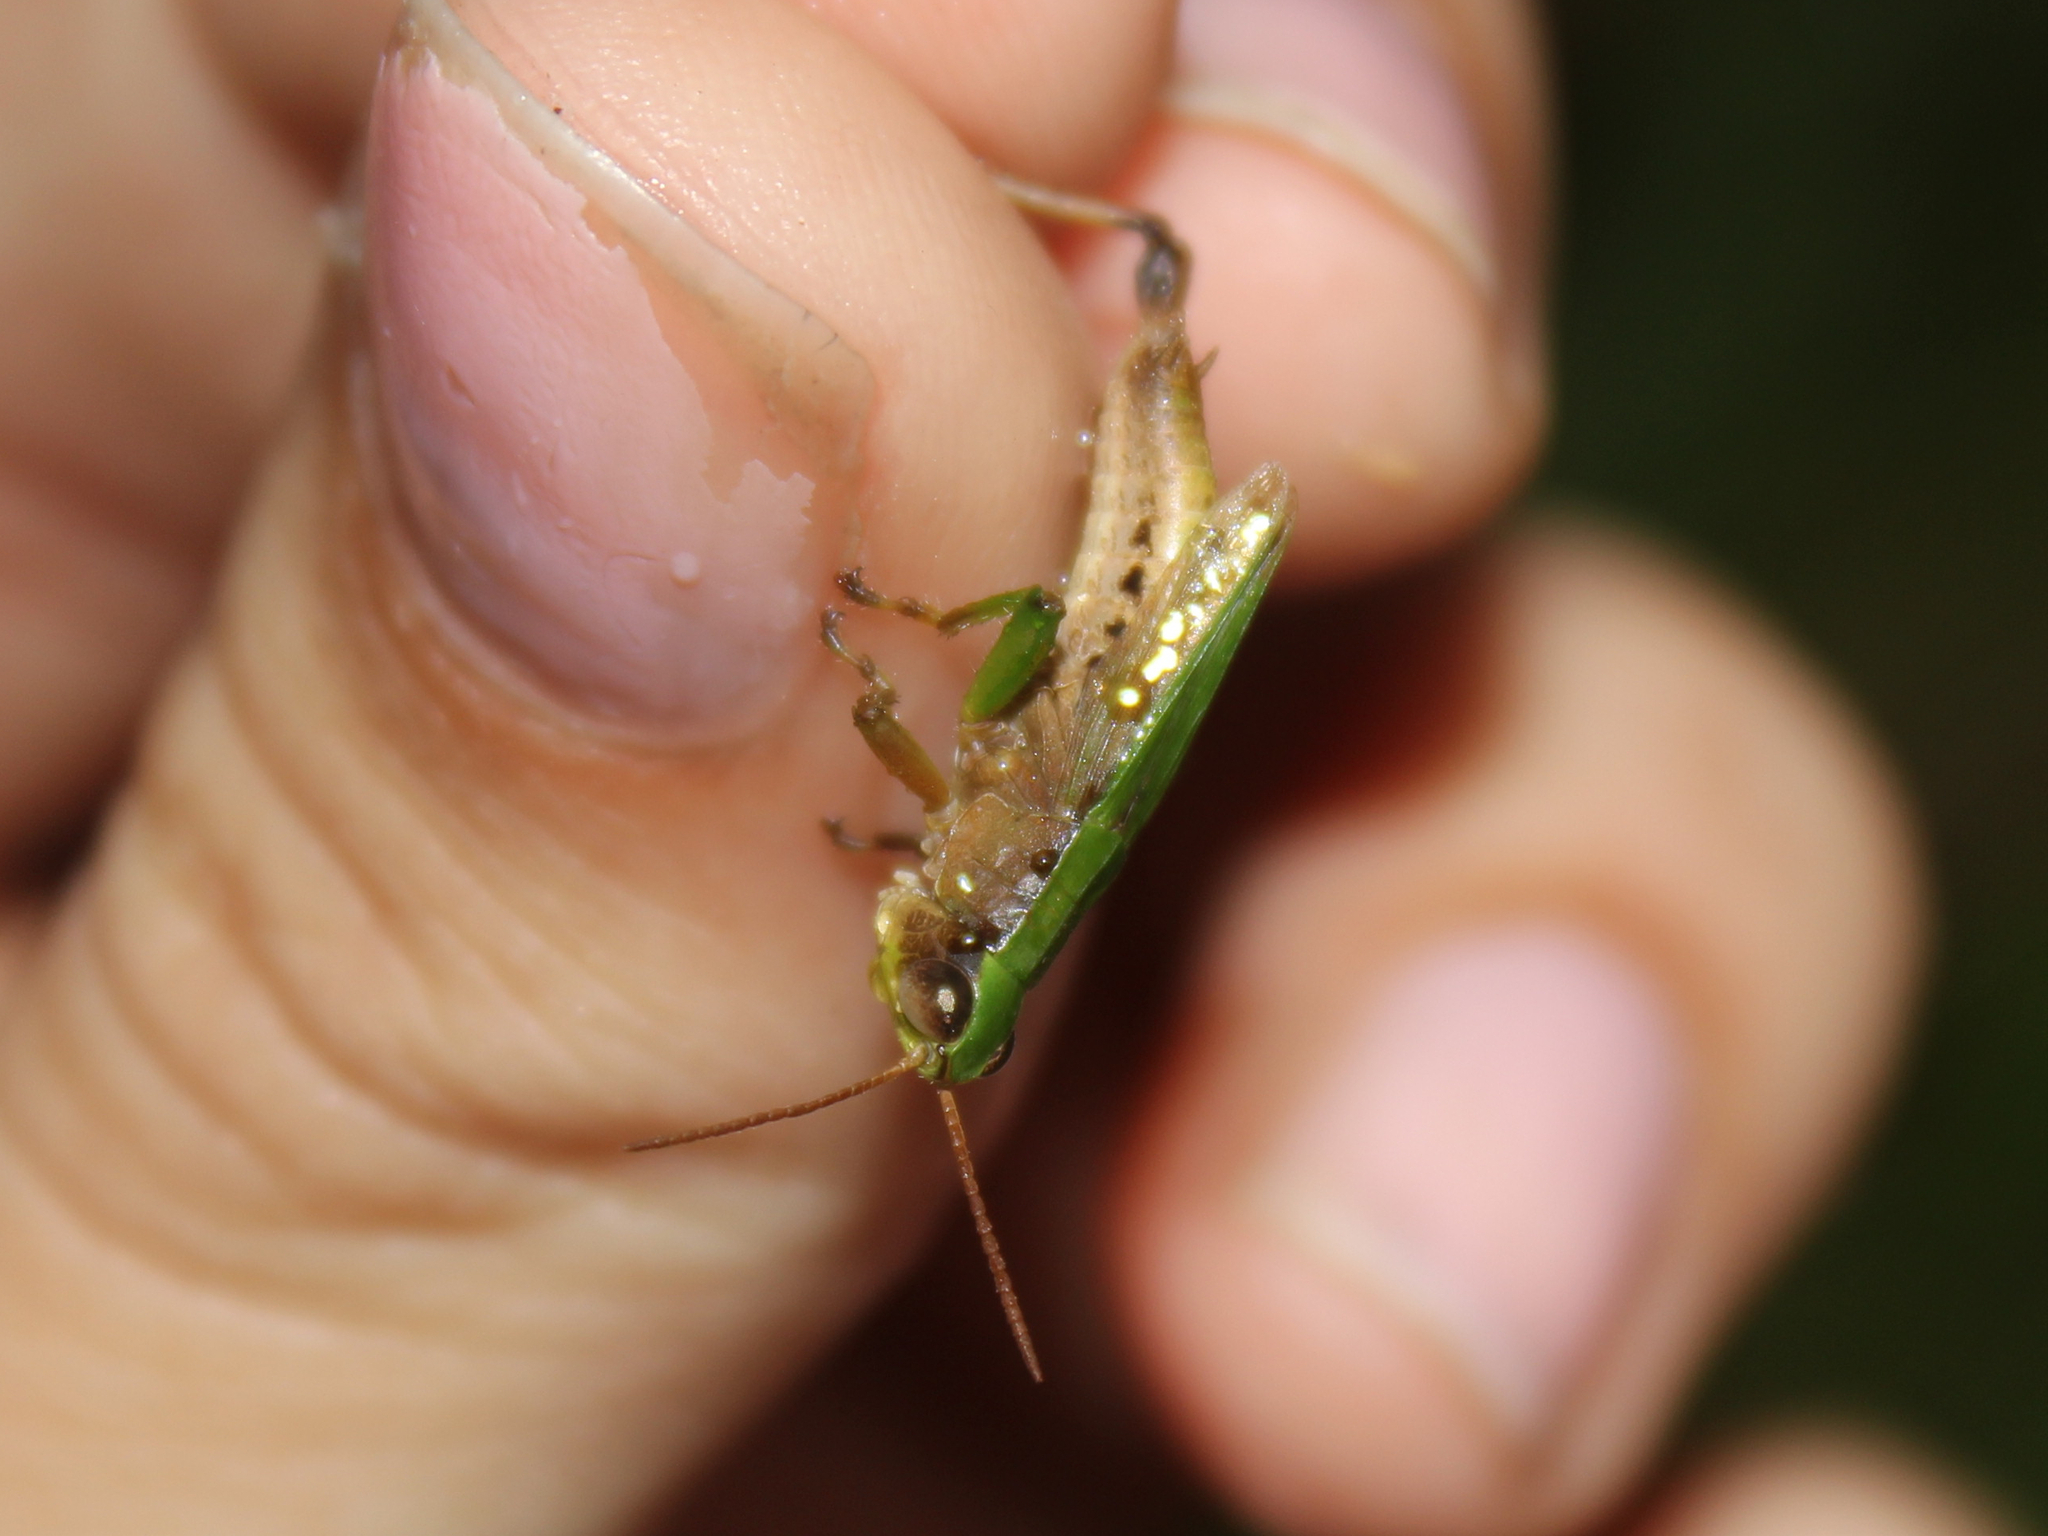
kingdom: Animalia
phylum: Arthropoda
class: Insecta
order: Orthoptera
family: Acrididae
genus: Dichromorpha
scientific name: Dichromorpha viridis
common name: Short-winged green grasshopper
